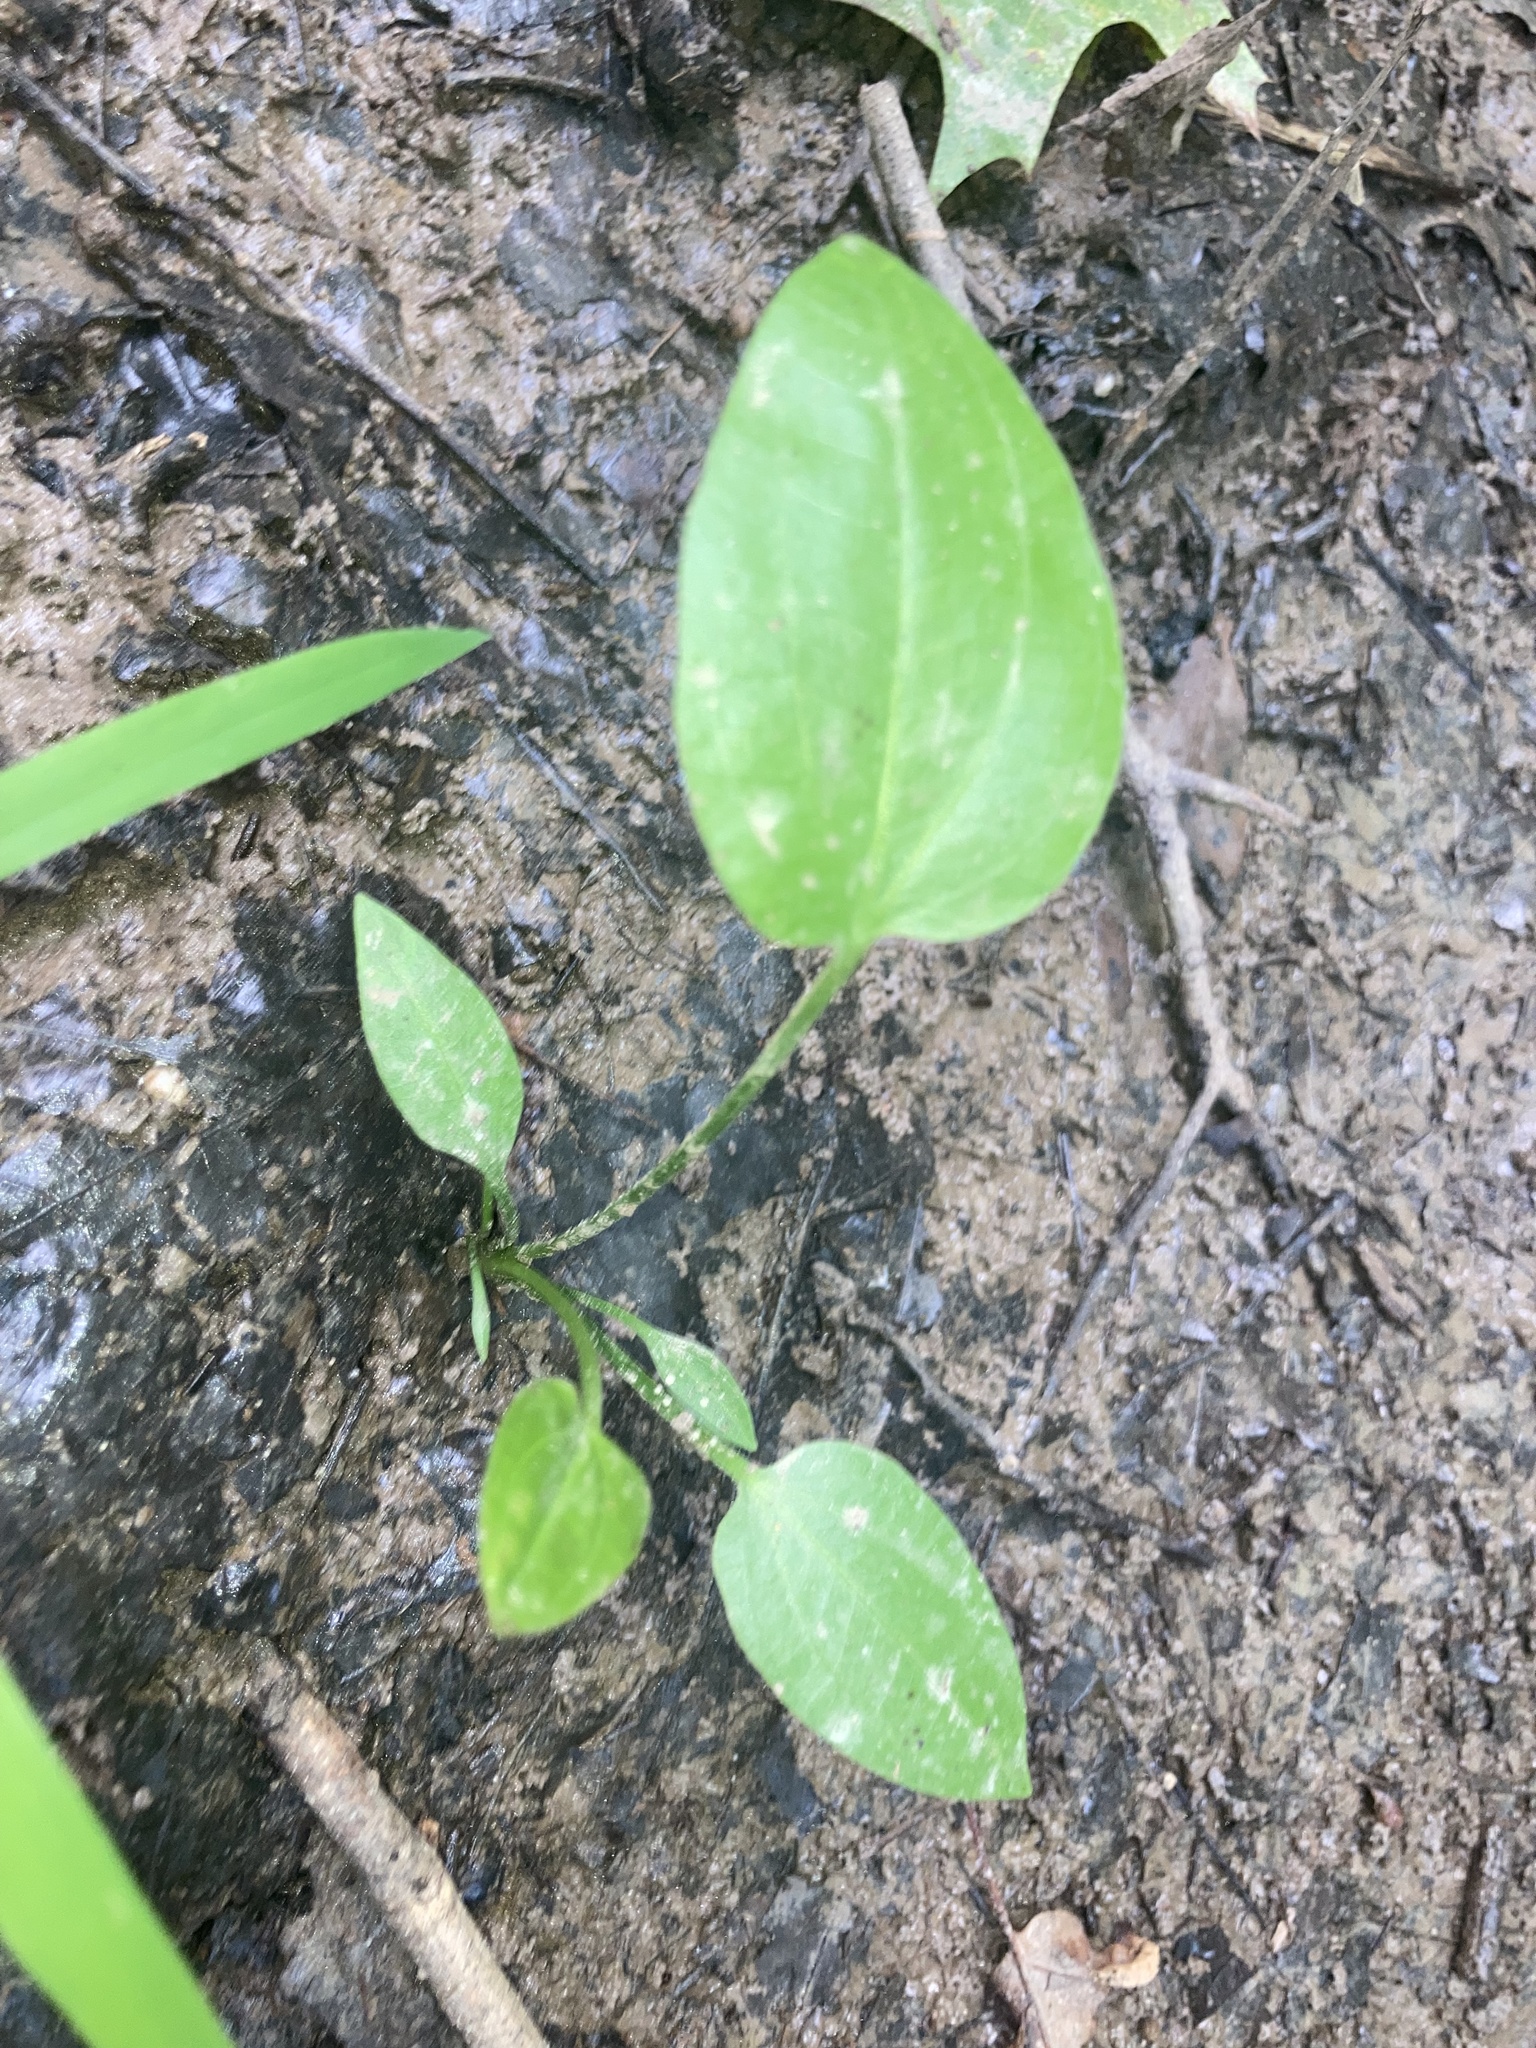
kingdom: Plantae
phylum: Tracheophyta
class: Liliopsida
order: Alismatales
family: Alismataceae
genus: Aquarius
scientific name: Aquarius cordifolius
